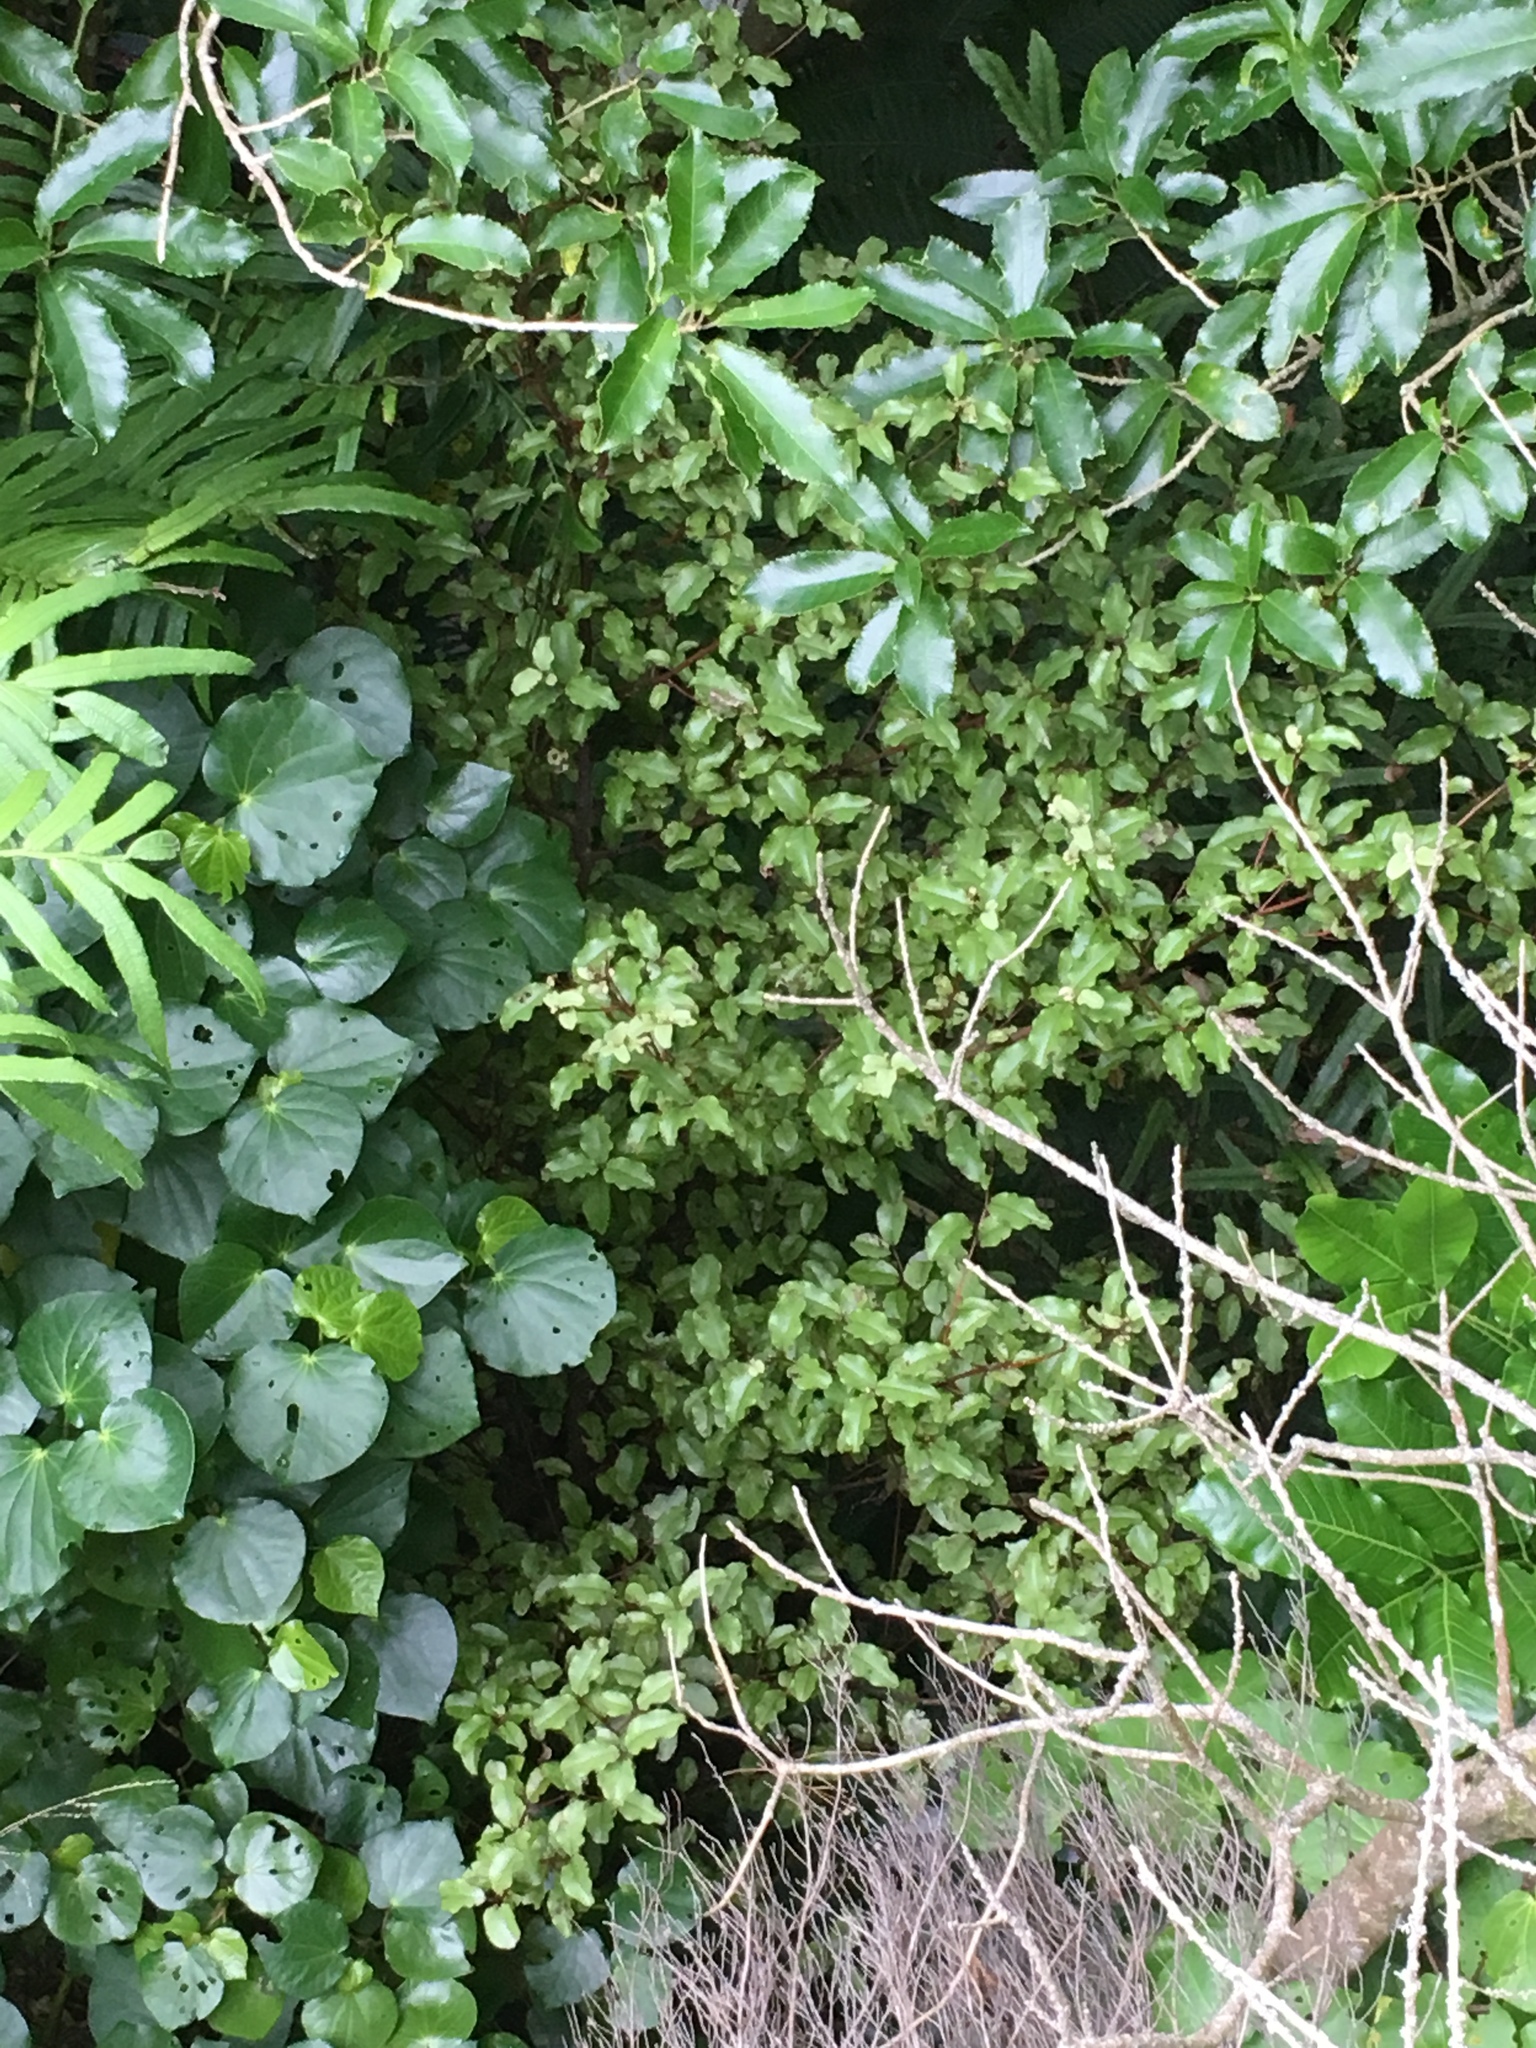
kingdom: Plantae
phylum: Tracheophyta
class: Magnoliopsida
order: Ericales
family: Primulaceae
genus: Myrsine
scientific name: Myrsine australis
